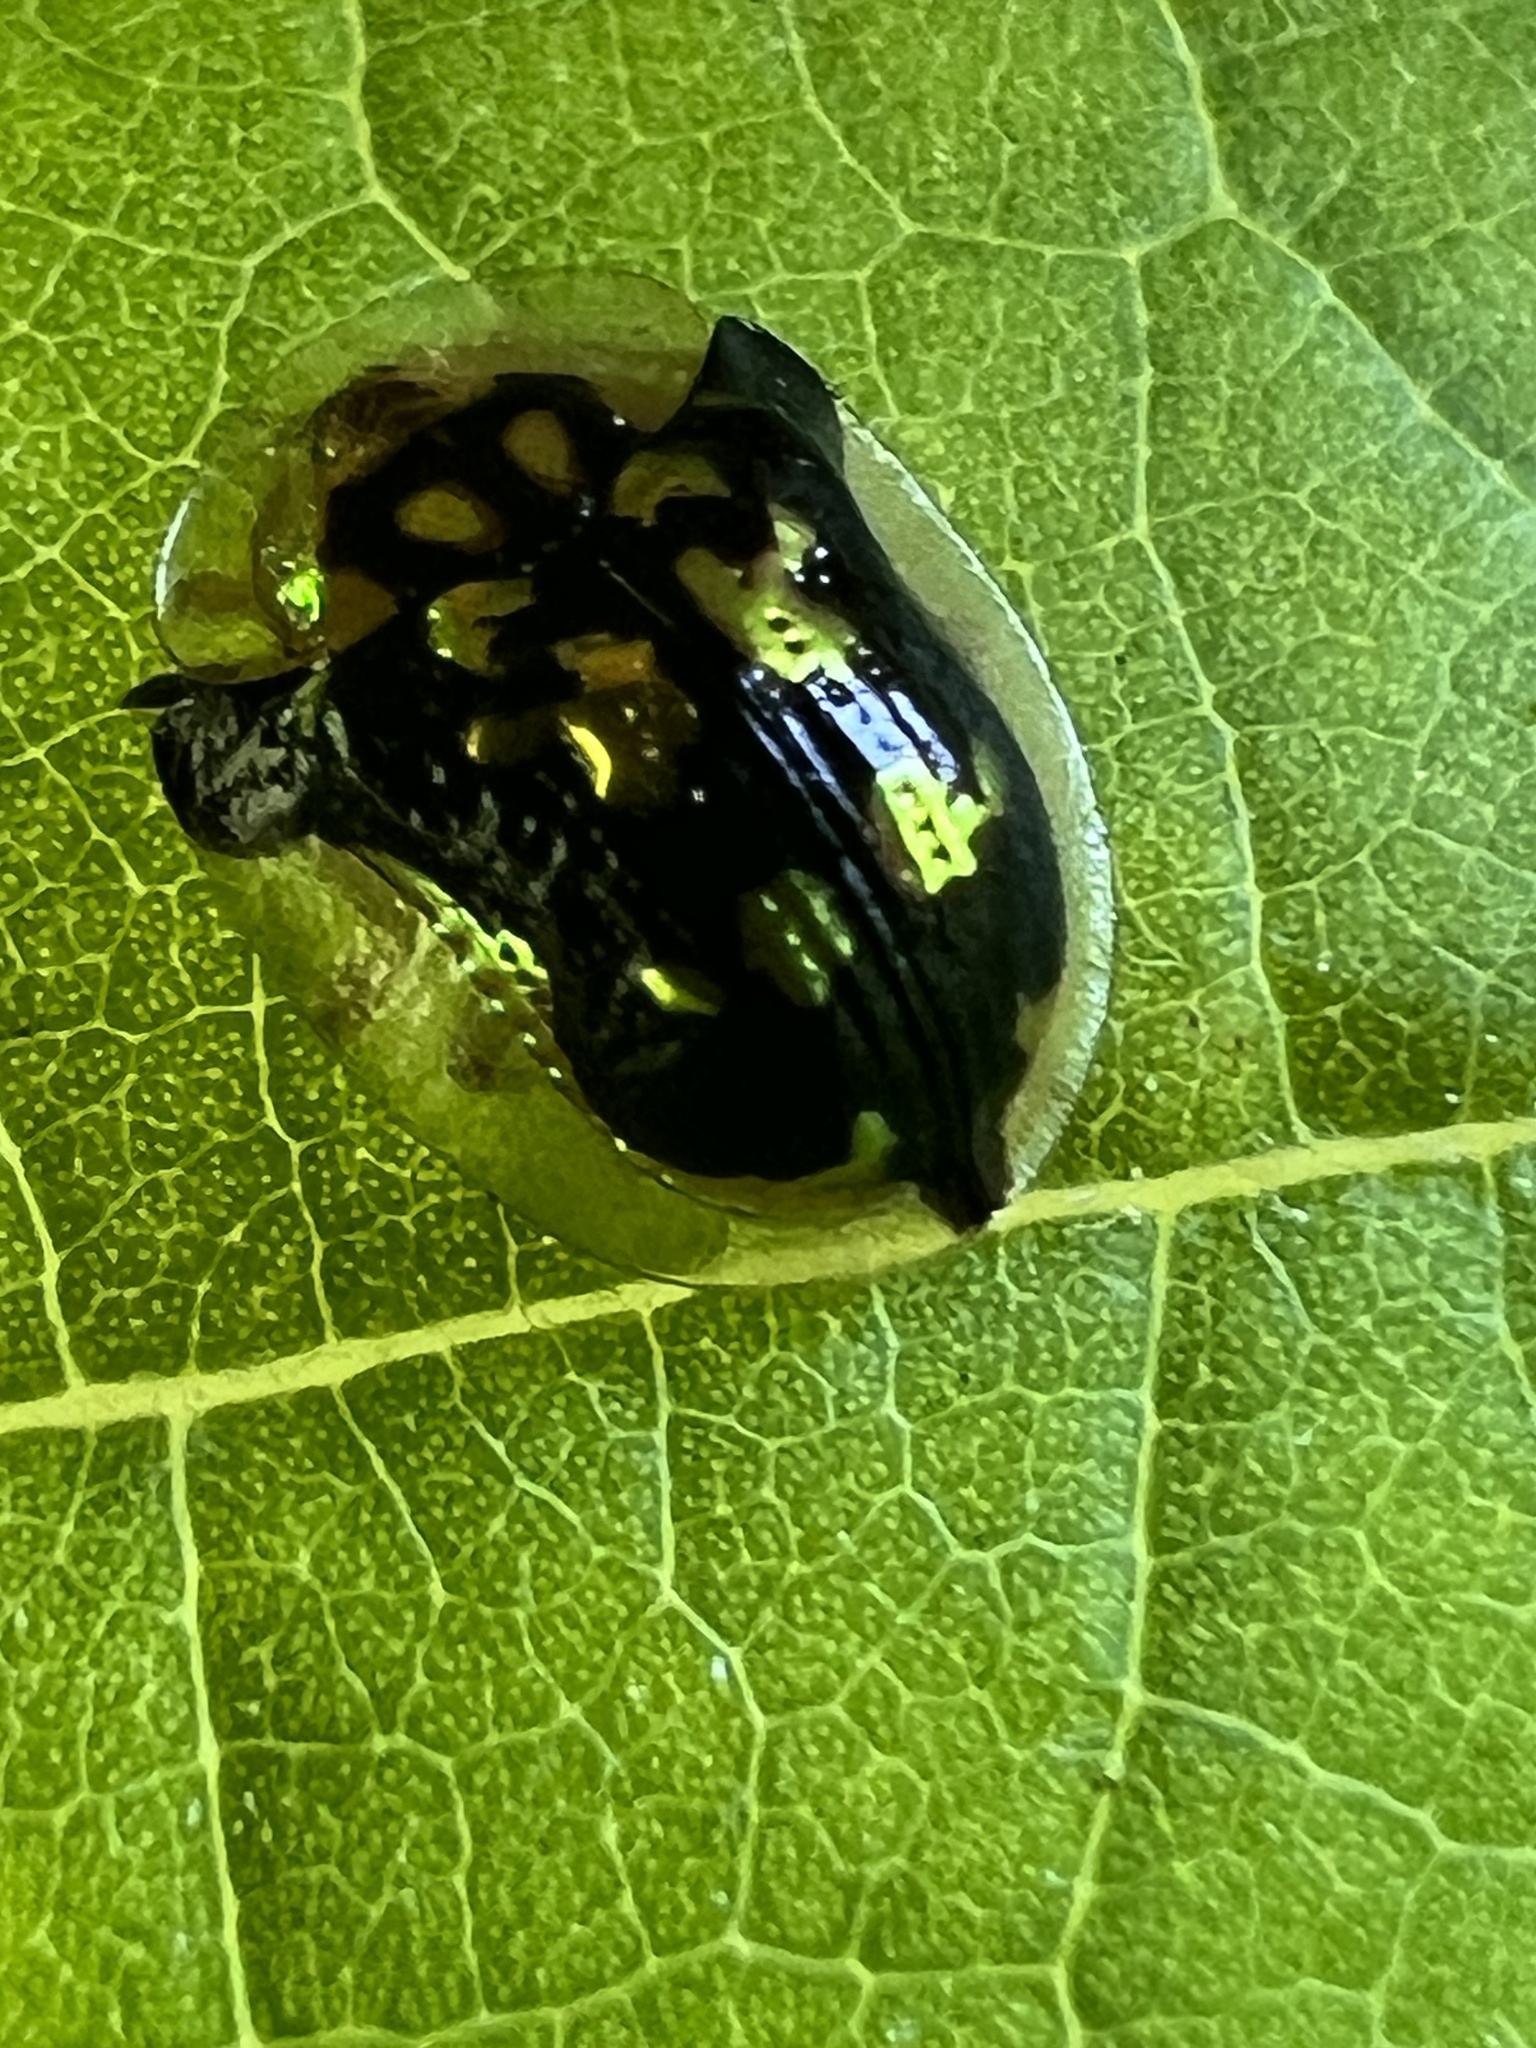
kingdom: Animalia
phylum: Arthropoda
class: Insecta
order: Coleoptera
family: Chrysomelidae
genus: Deloyala
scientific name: Deloyala guttata
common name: Mottled tortoise beetle
